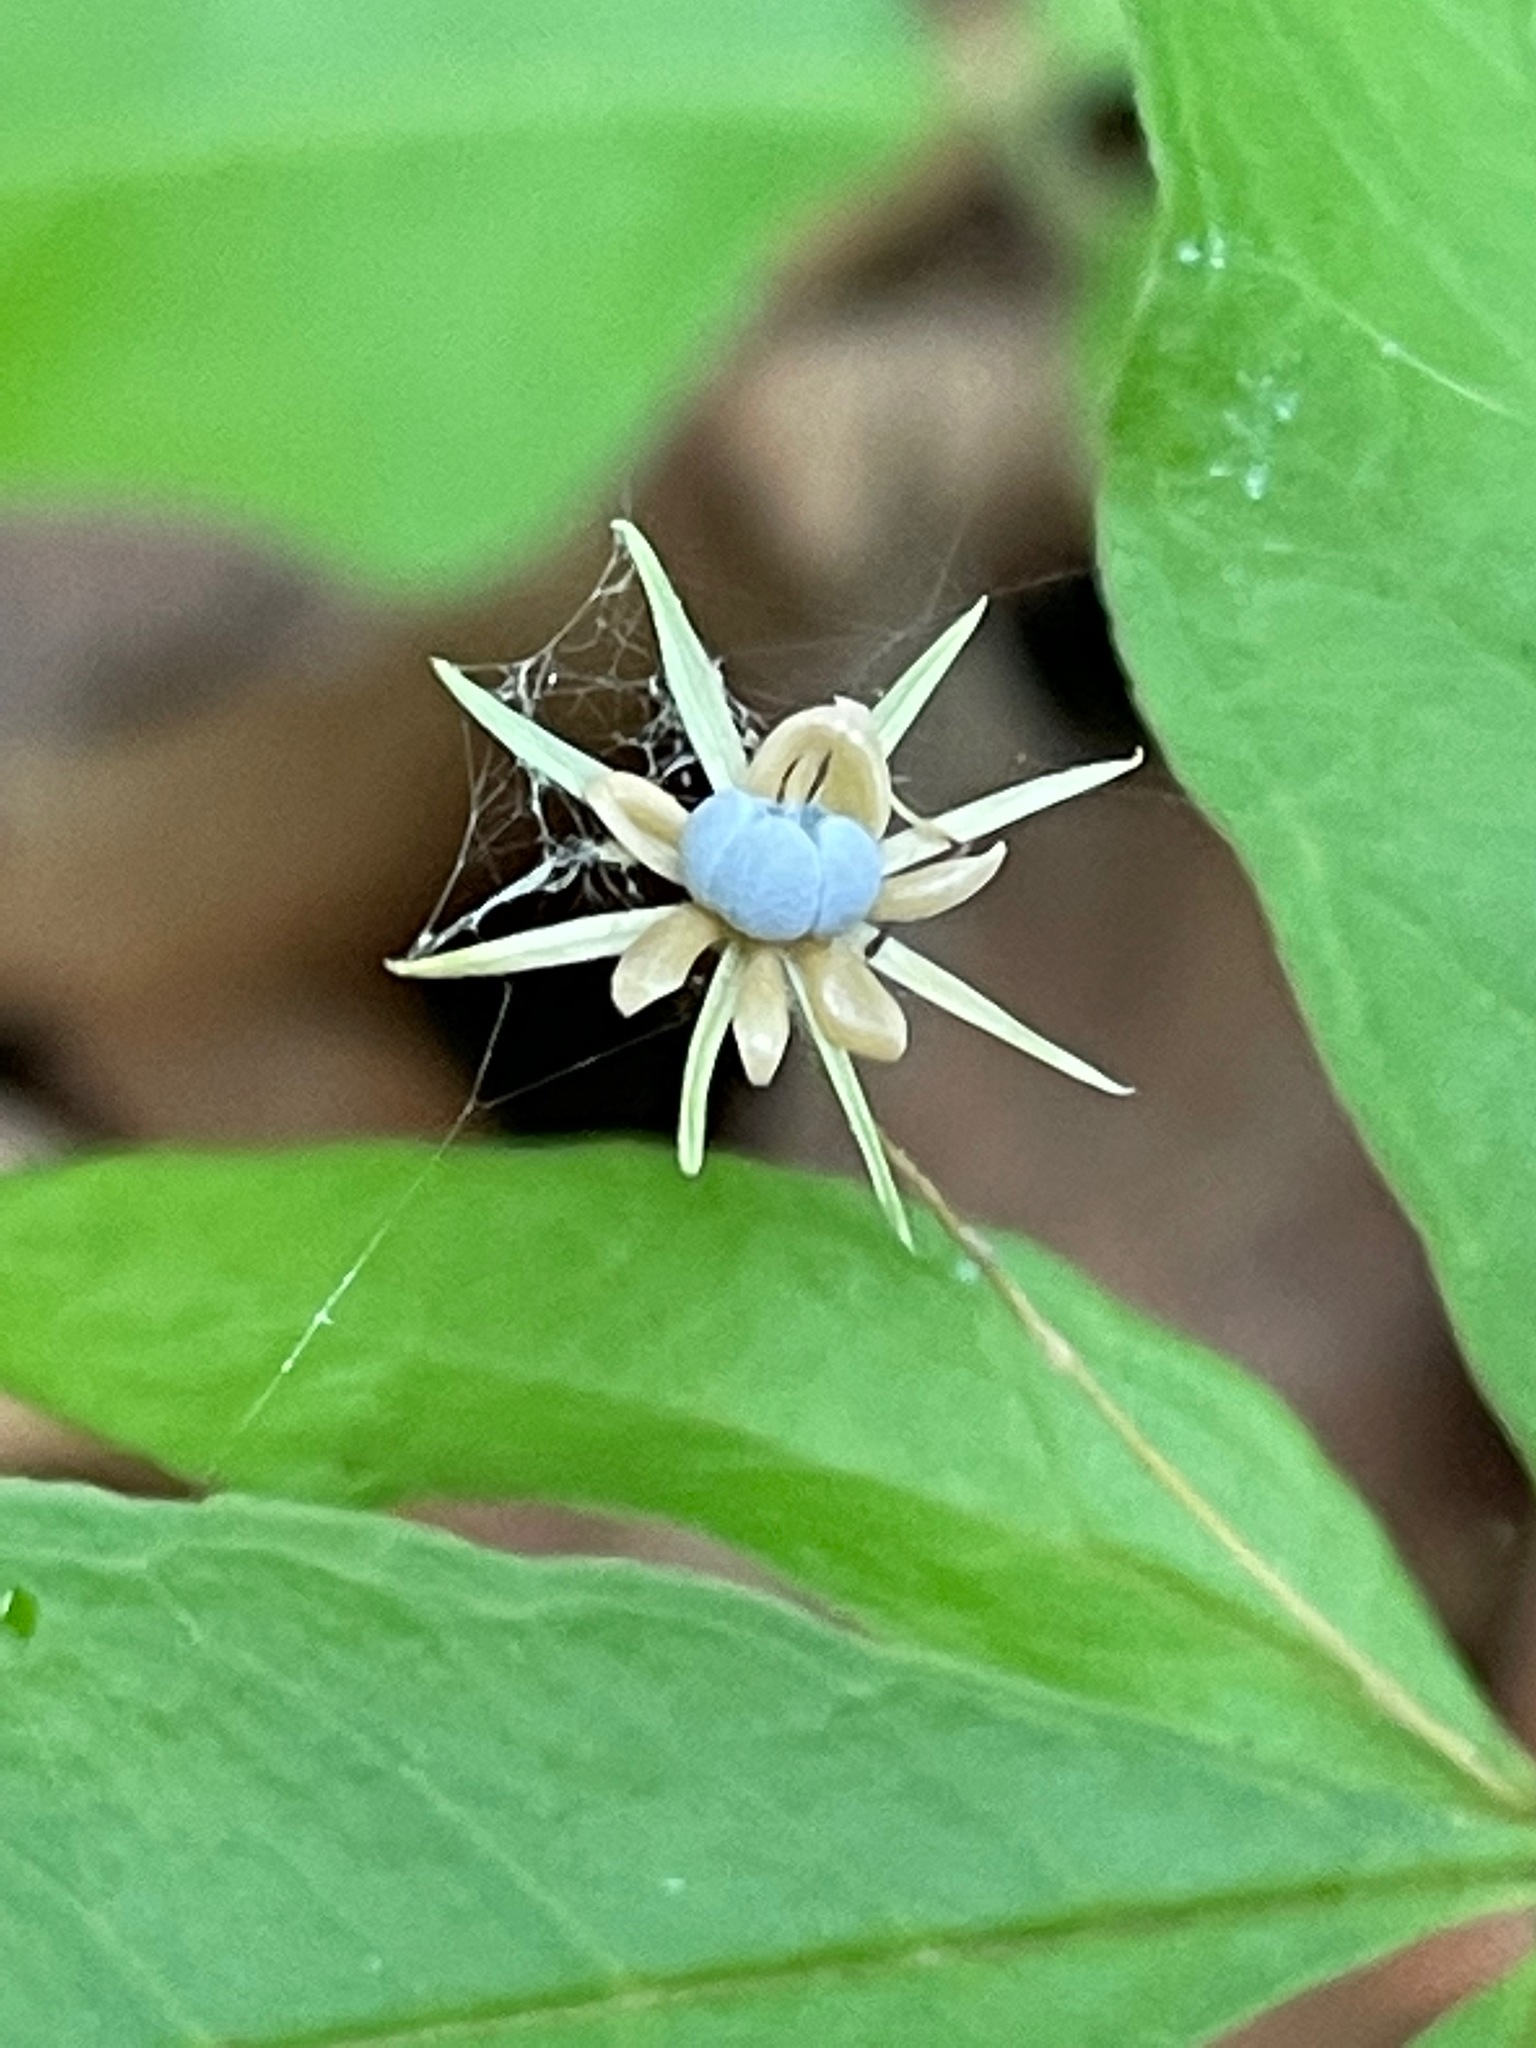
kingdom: Plantae
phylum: Tracheophyta
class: Magnoliopsida
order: Ericales
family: Primulaceae
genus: Lysimachia
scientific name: Lysimachia borealis
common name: American starflower
